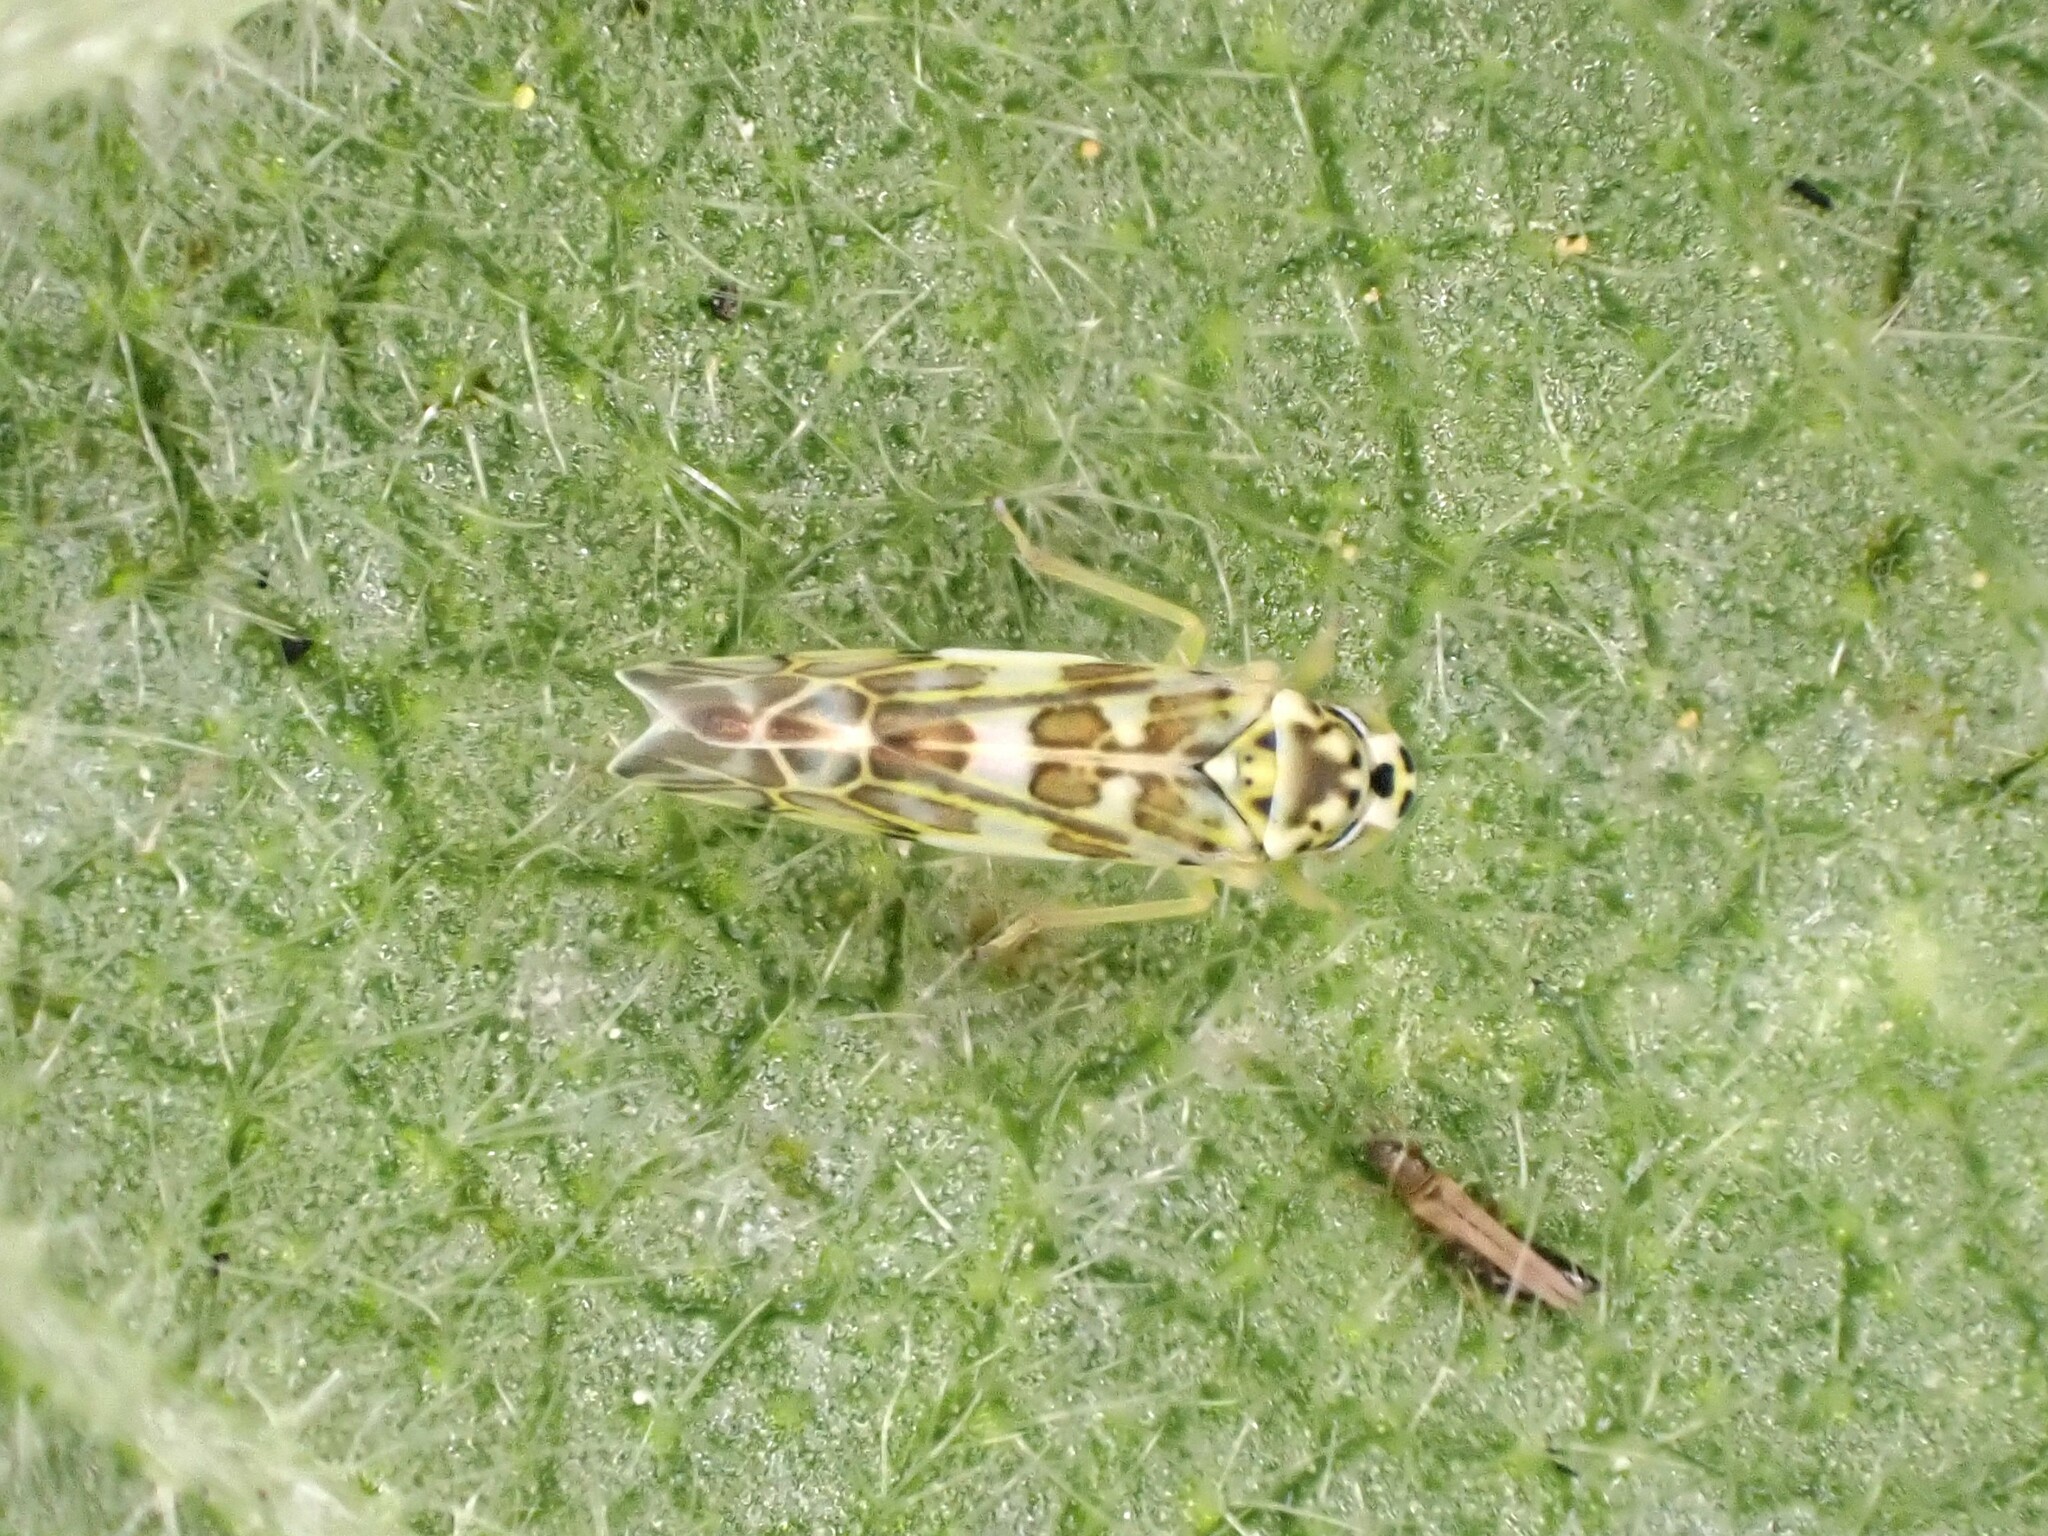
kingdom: Animalia
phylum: Arthropoda
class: Insecta
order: Hemiptera
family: Cicadellidae
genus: Eupteryx
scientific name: Eupteryx melissae
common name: Herb leafhopper
